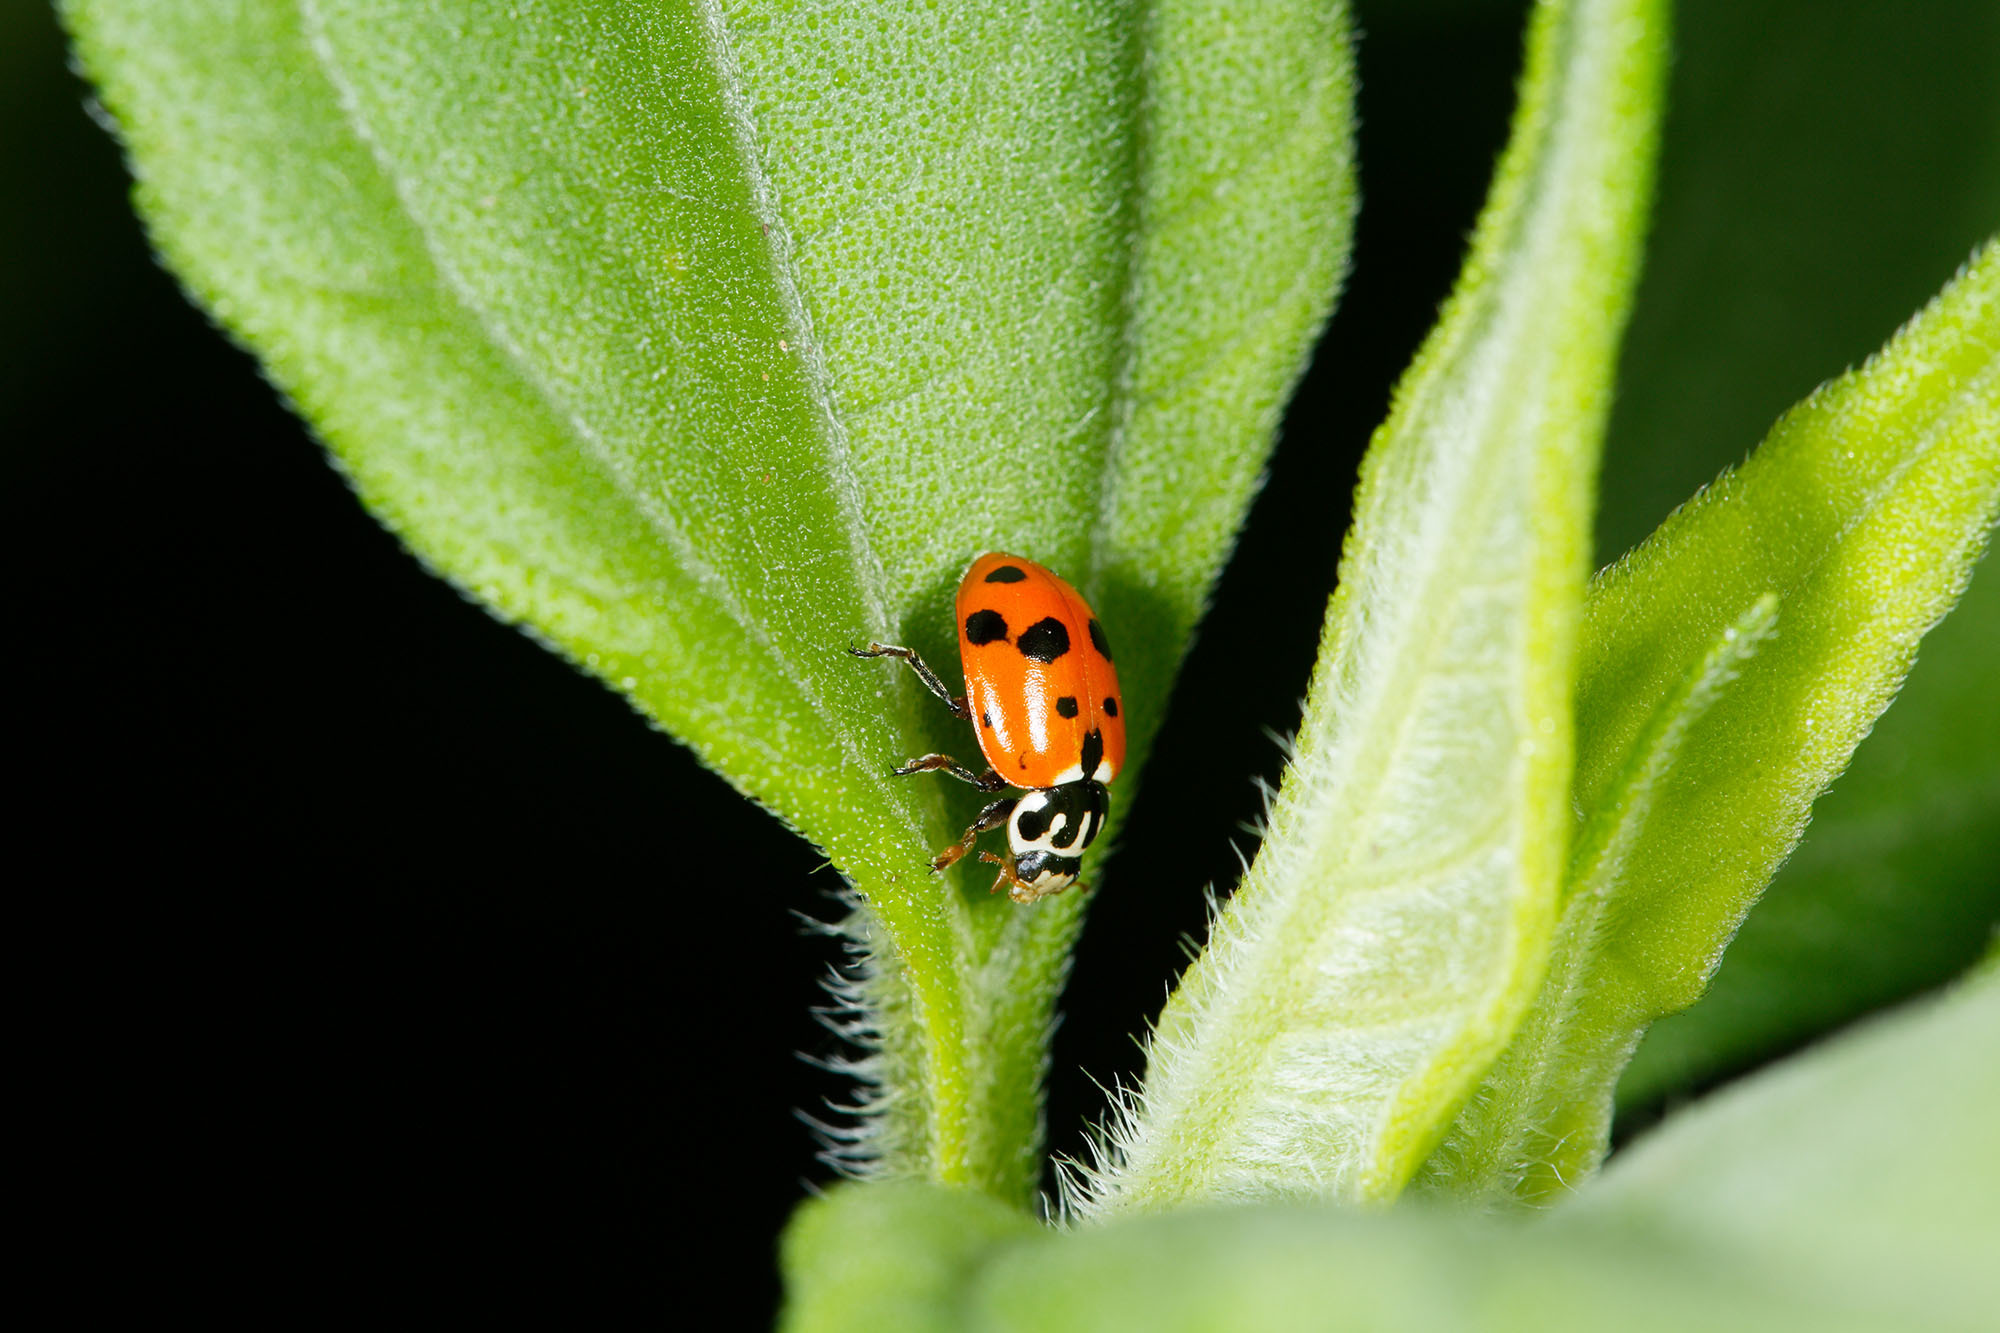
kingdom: Animalia
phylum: Arthropoda
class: Insecta
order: Coleoptera
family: Coccinellidae
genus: Hippodamia
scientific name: Hippodamia variegata
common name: Ladybird beetle
